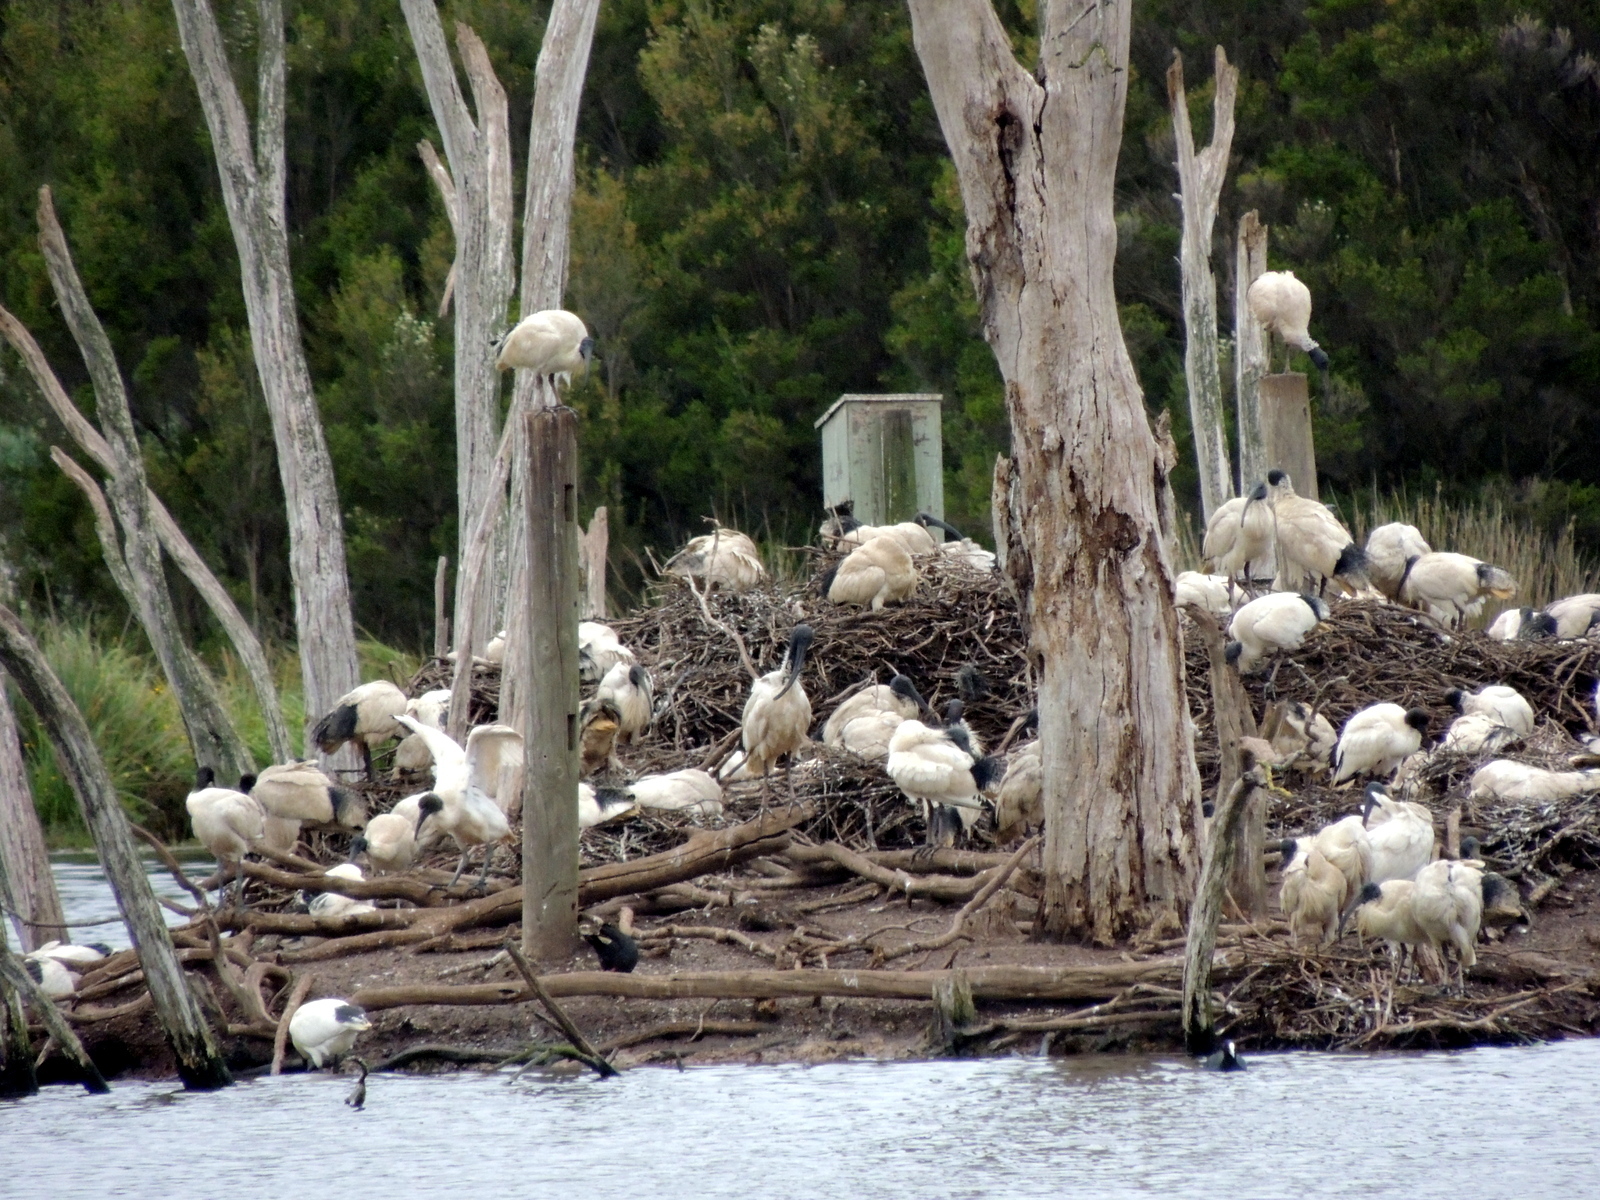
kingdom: Animalia
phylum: Chordata
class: Aves
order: Pelecaniformes
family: Threskiornithidae
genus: Threskiornis
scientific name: Threskiornis molucca
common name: Australian white ibis
